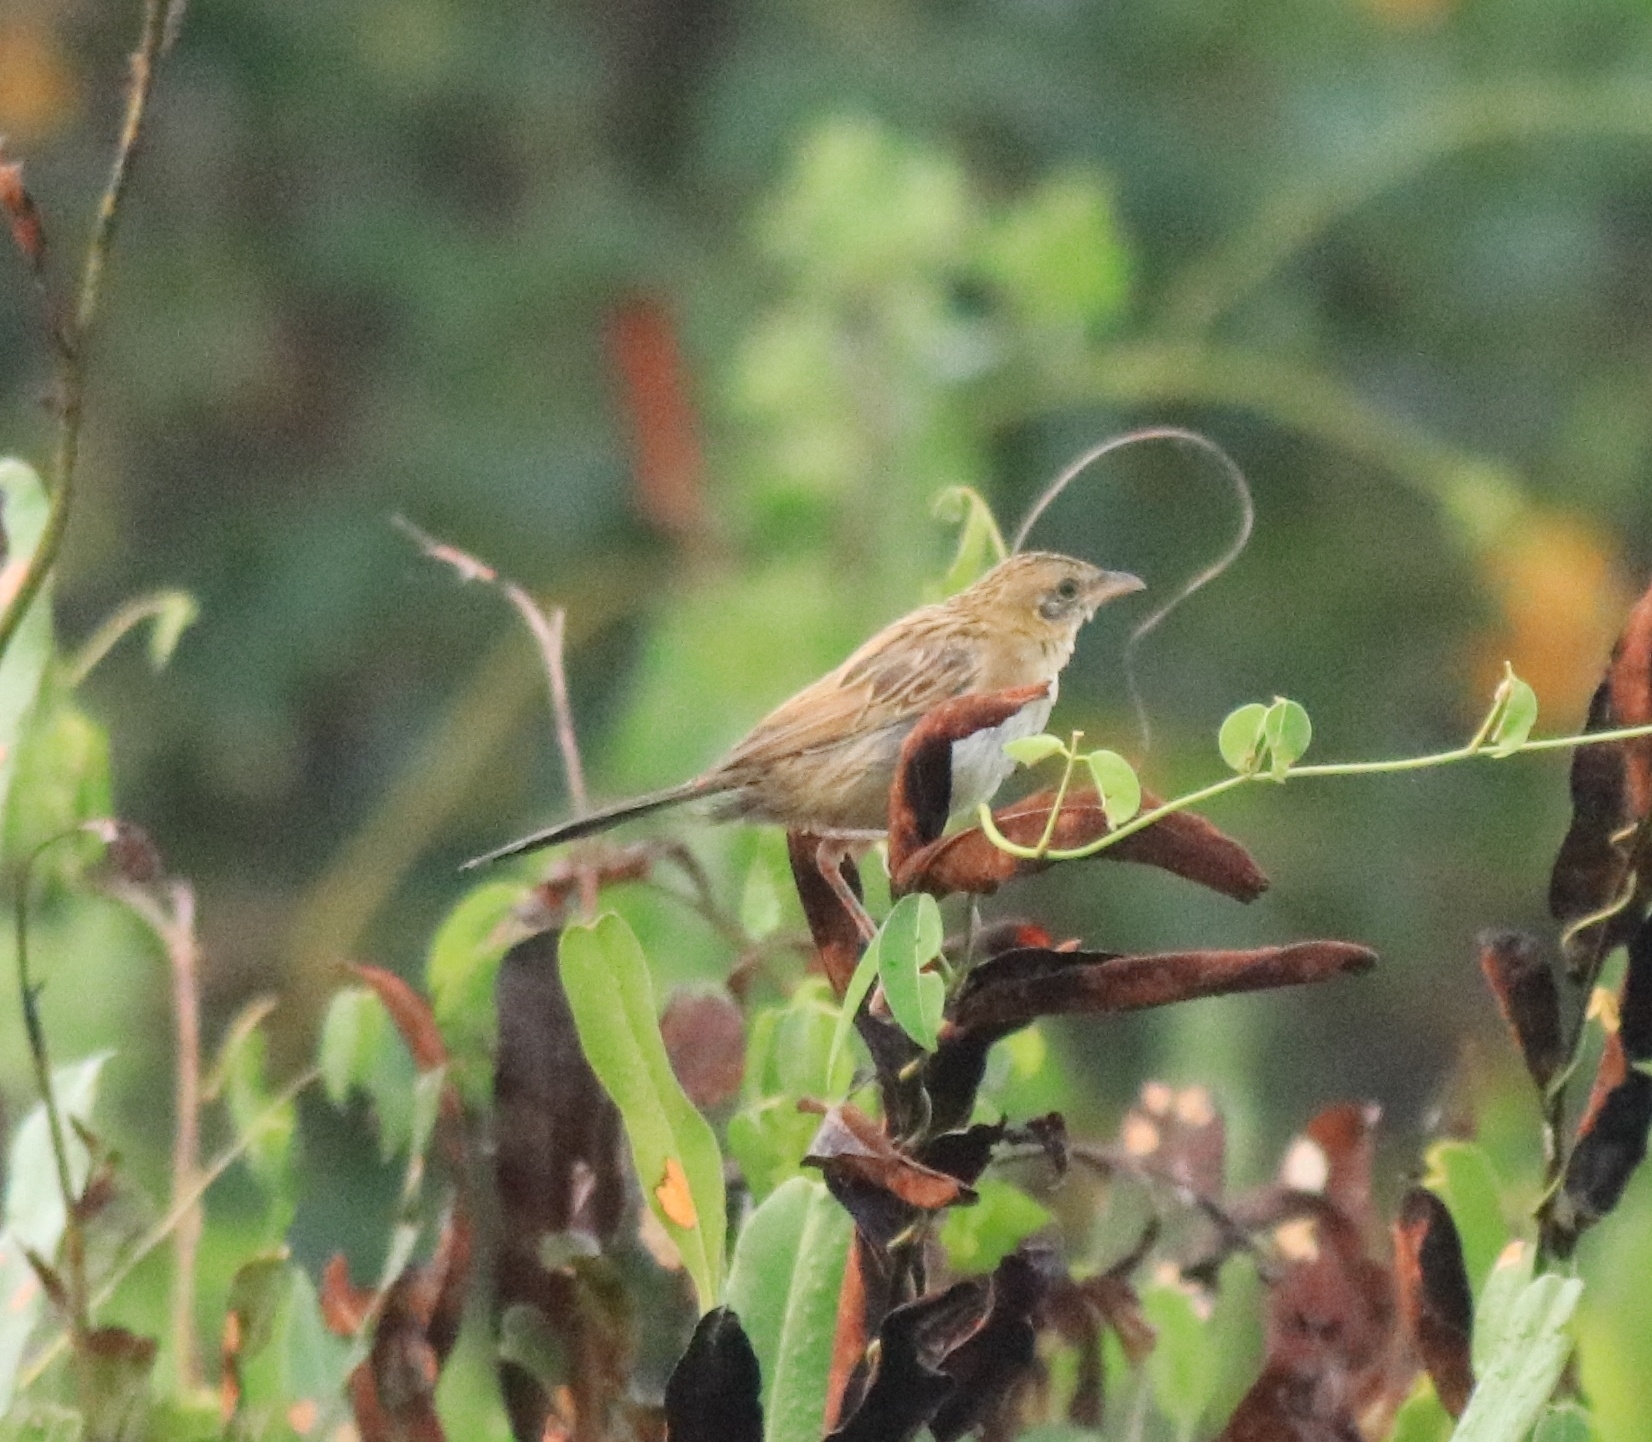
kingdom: Animalia
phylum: Chordata
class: Aves
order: Passeriformes
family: Locustellidae
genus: Chaetornis
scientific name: Chaetornis striata
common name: Bristled grassbird
